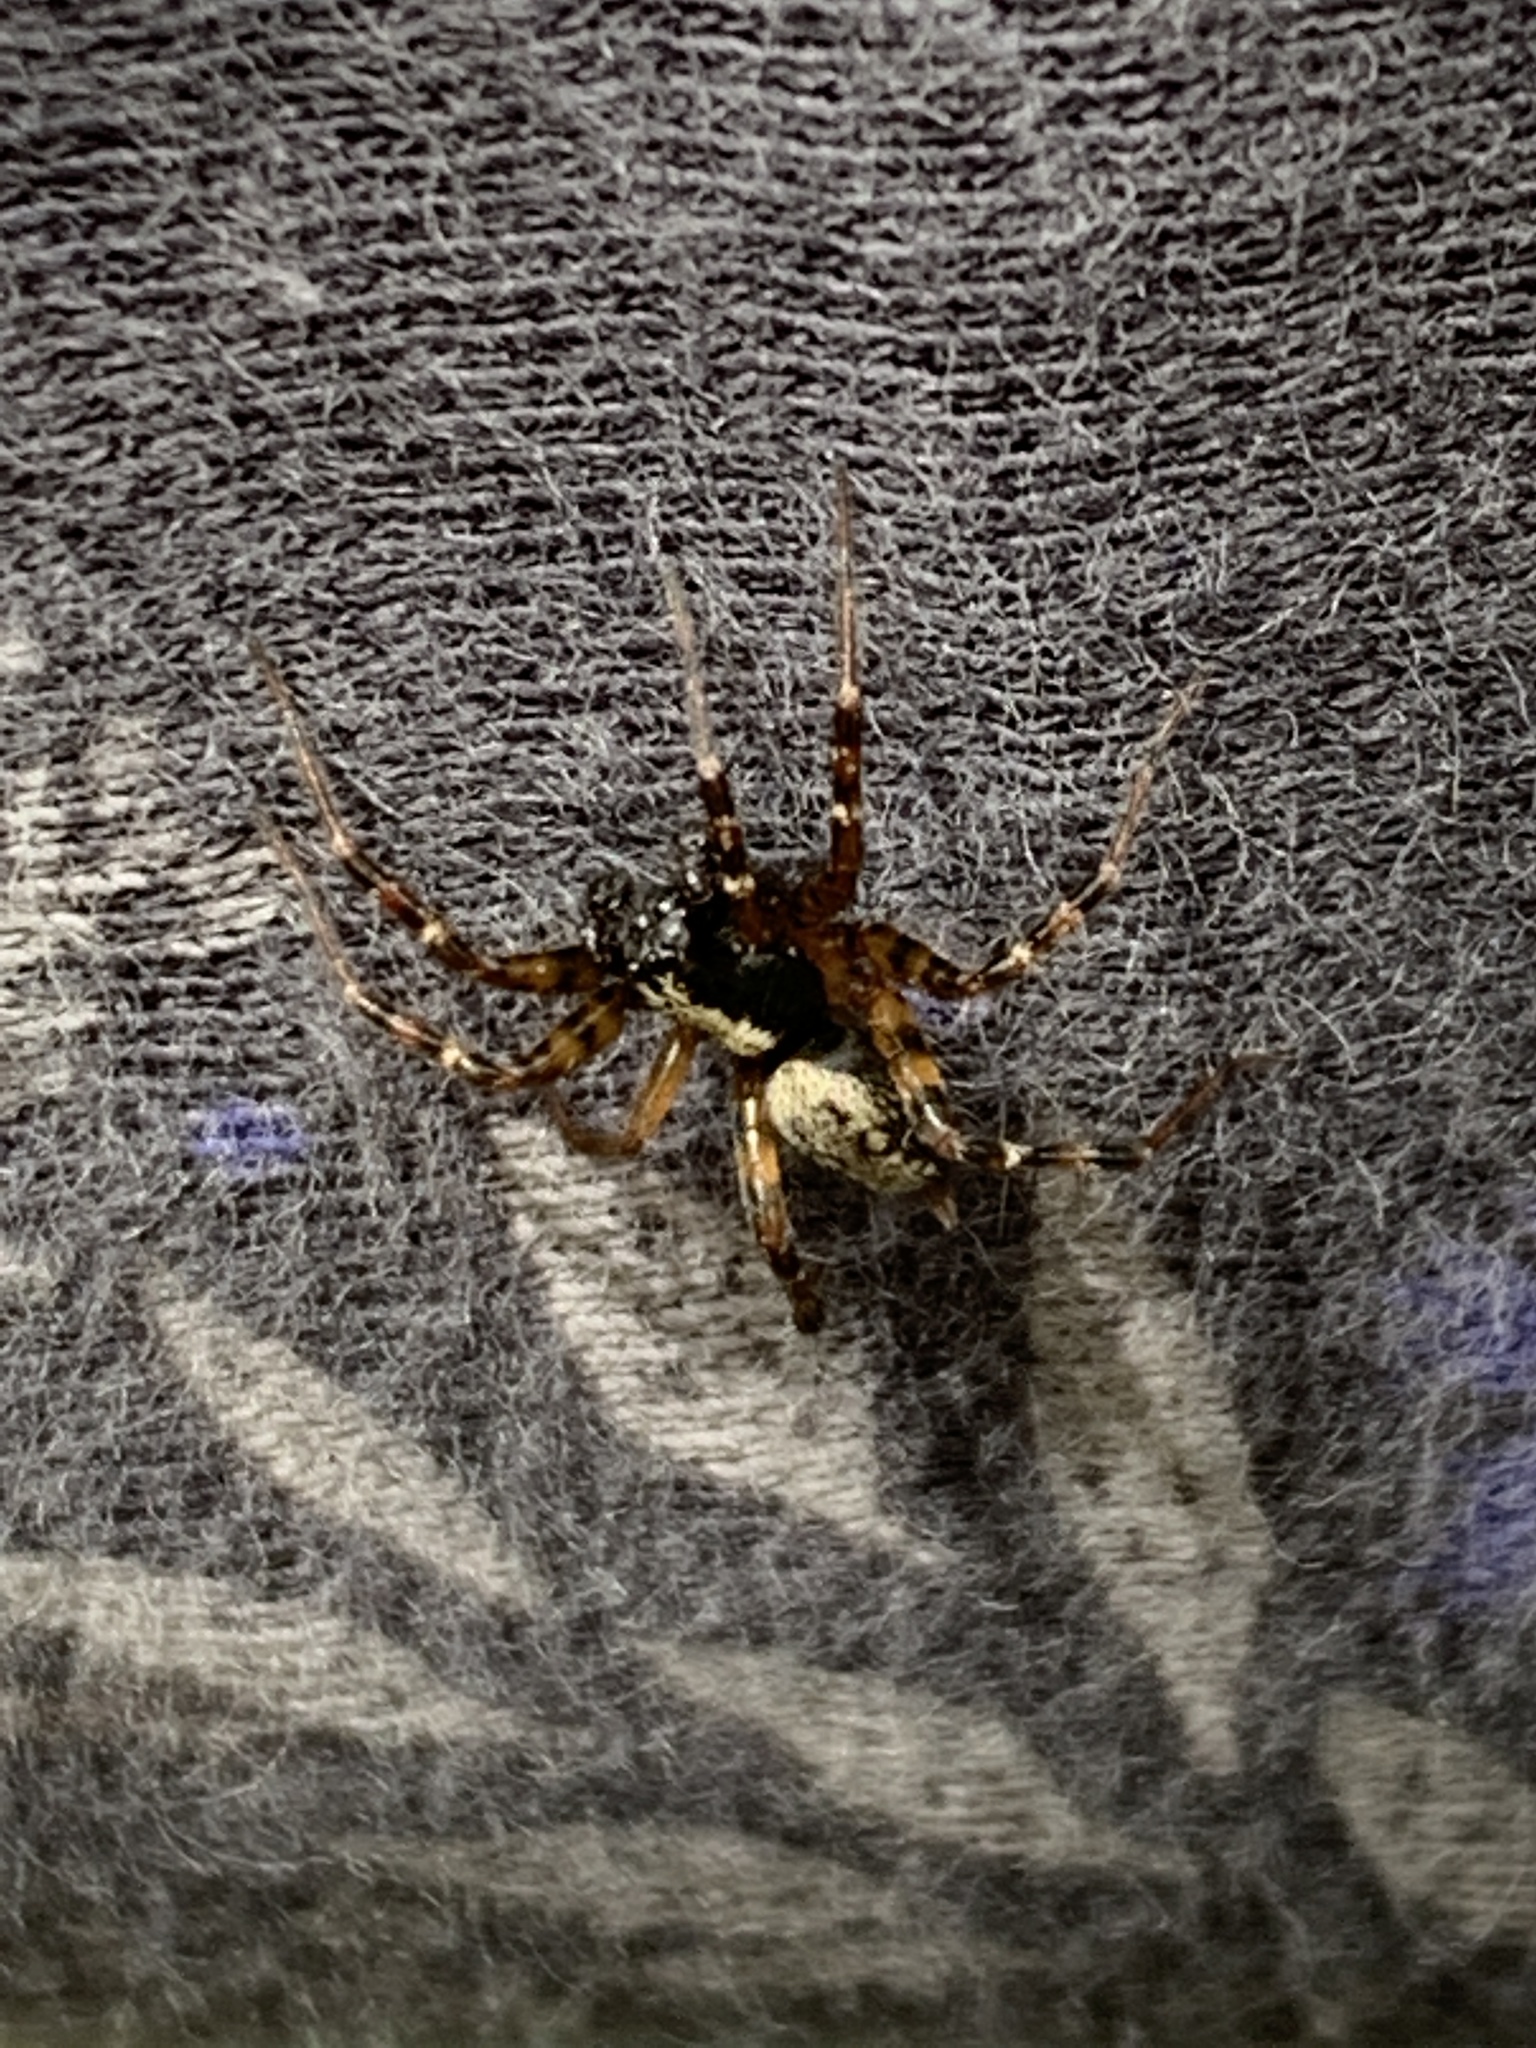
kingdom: Animalia
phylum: Arthropoda
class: Arachnida
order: Araneae
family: Agelenidae
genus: Textrix
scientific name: Textrix denticulata
